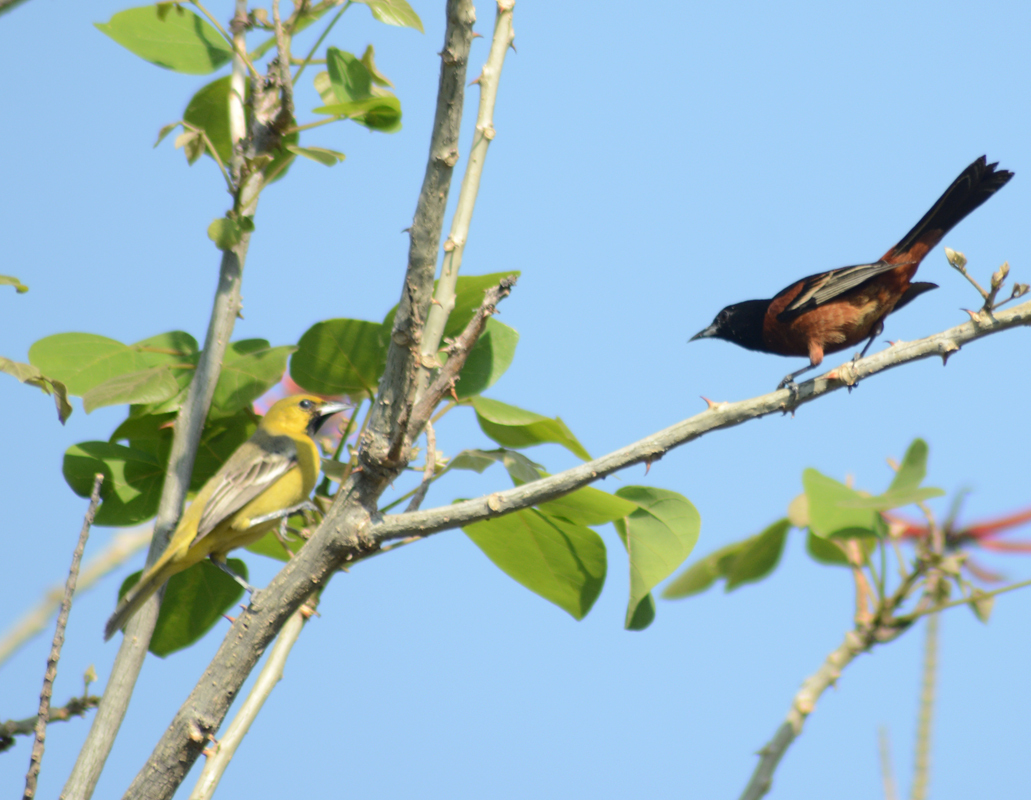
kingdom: Animalia
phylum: Chordata
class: Aves
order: Passeriformes
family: Icteridae
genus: Icterus
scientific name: Icterus spurius
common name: Orchard oriole
